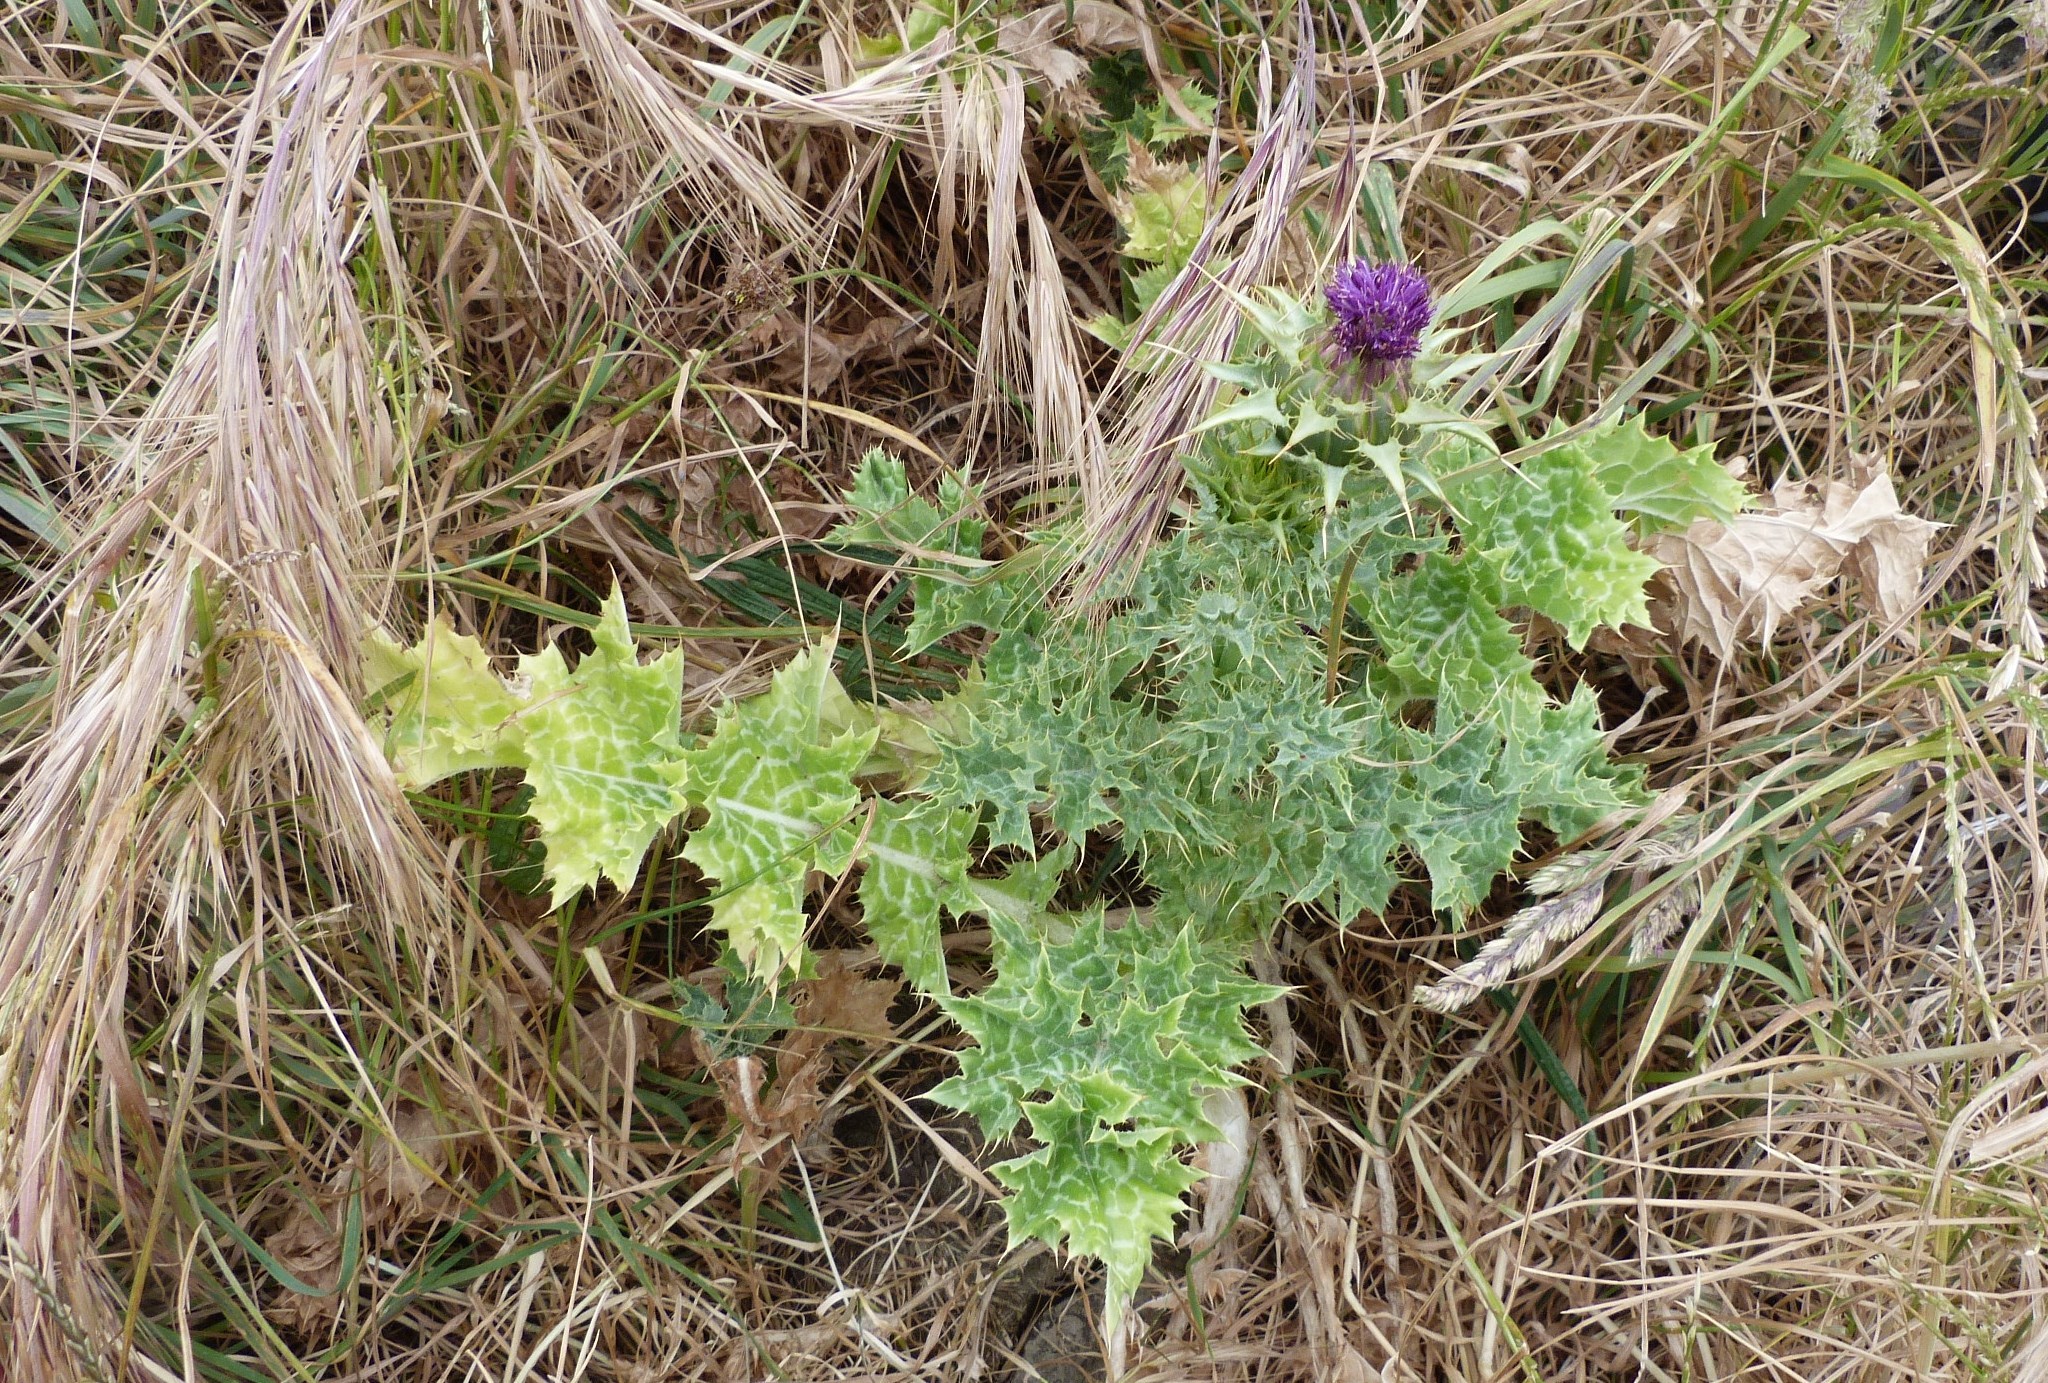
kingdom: Plantae
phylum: Tracheophyta
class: Magnoliopsida
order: Asterales
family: Asteraceae
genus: Silybum
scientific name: Silybum marianum
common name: Milk thistle
